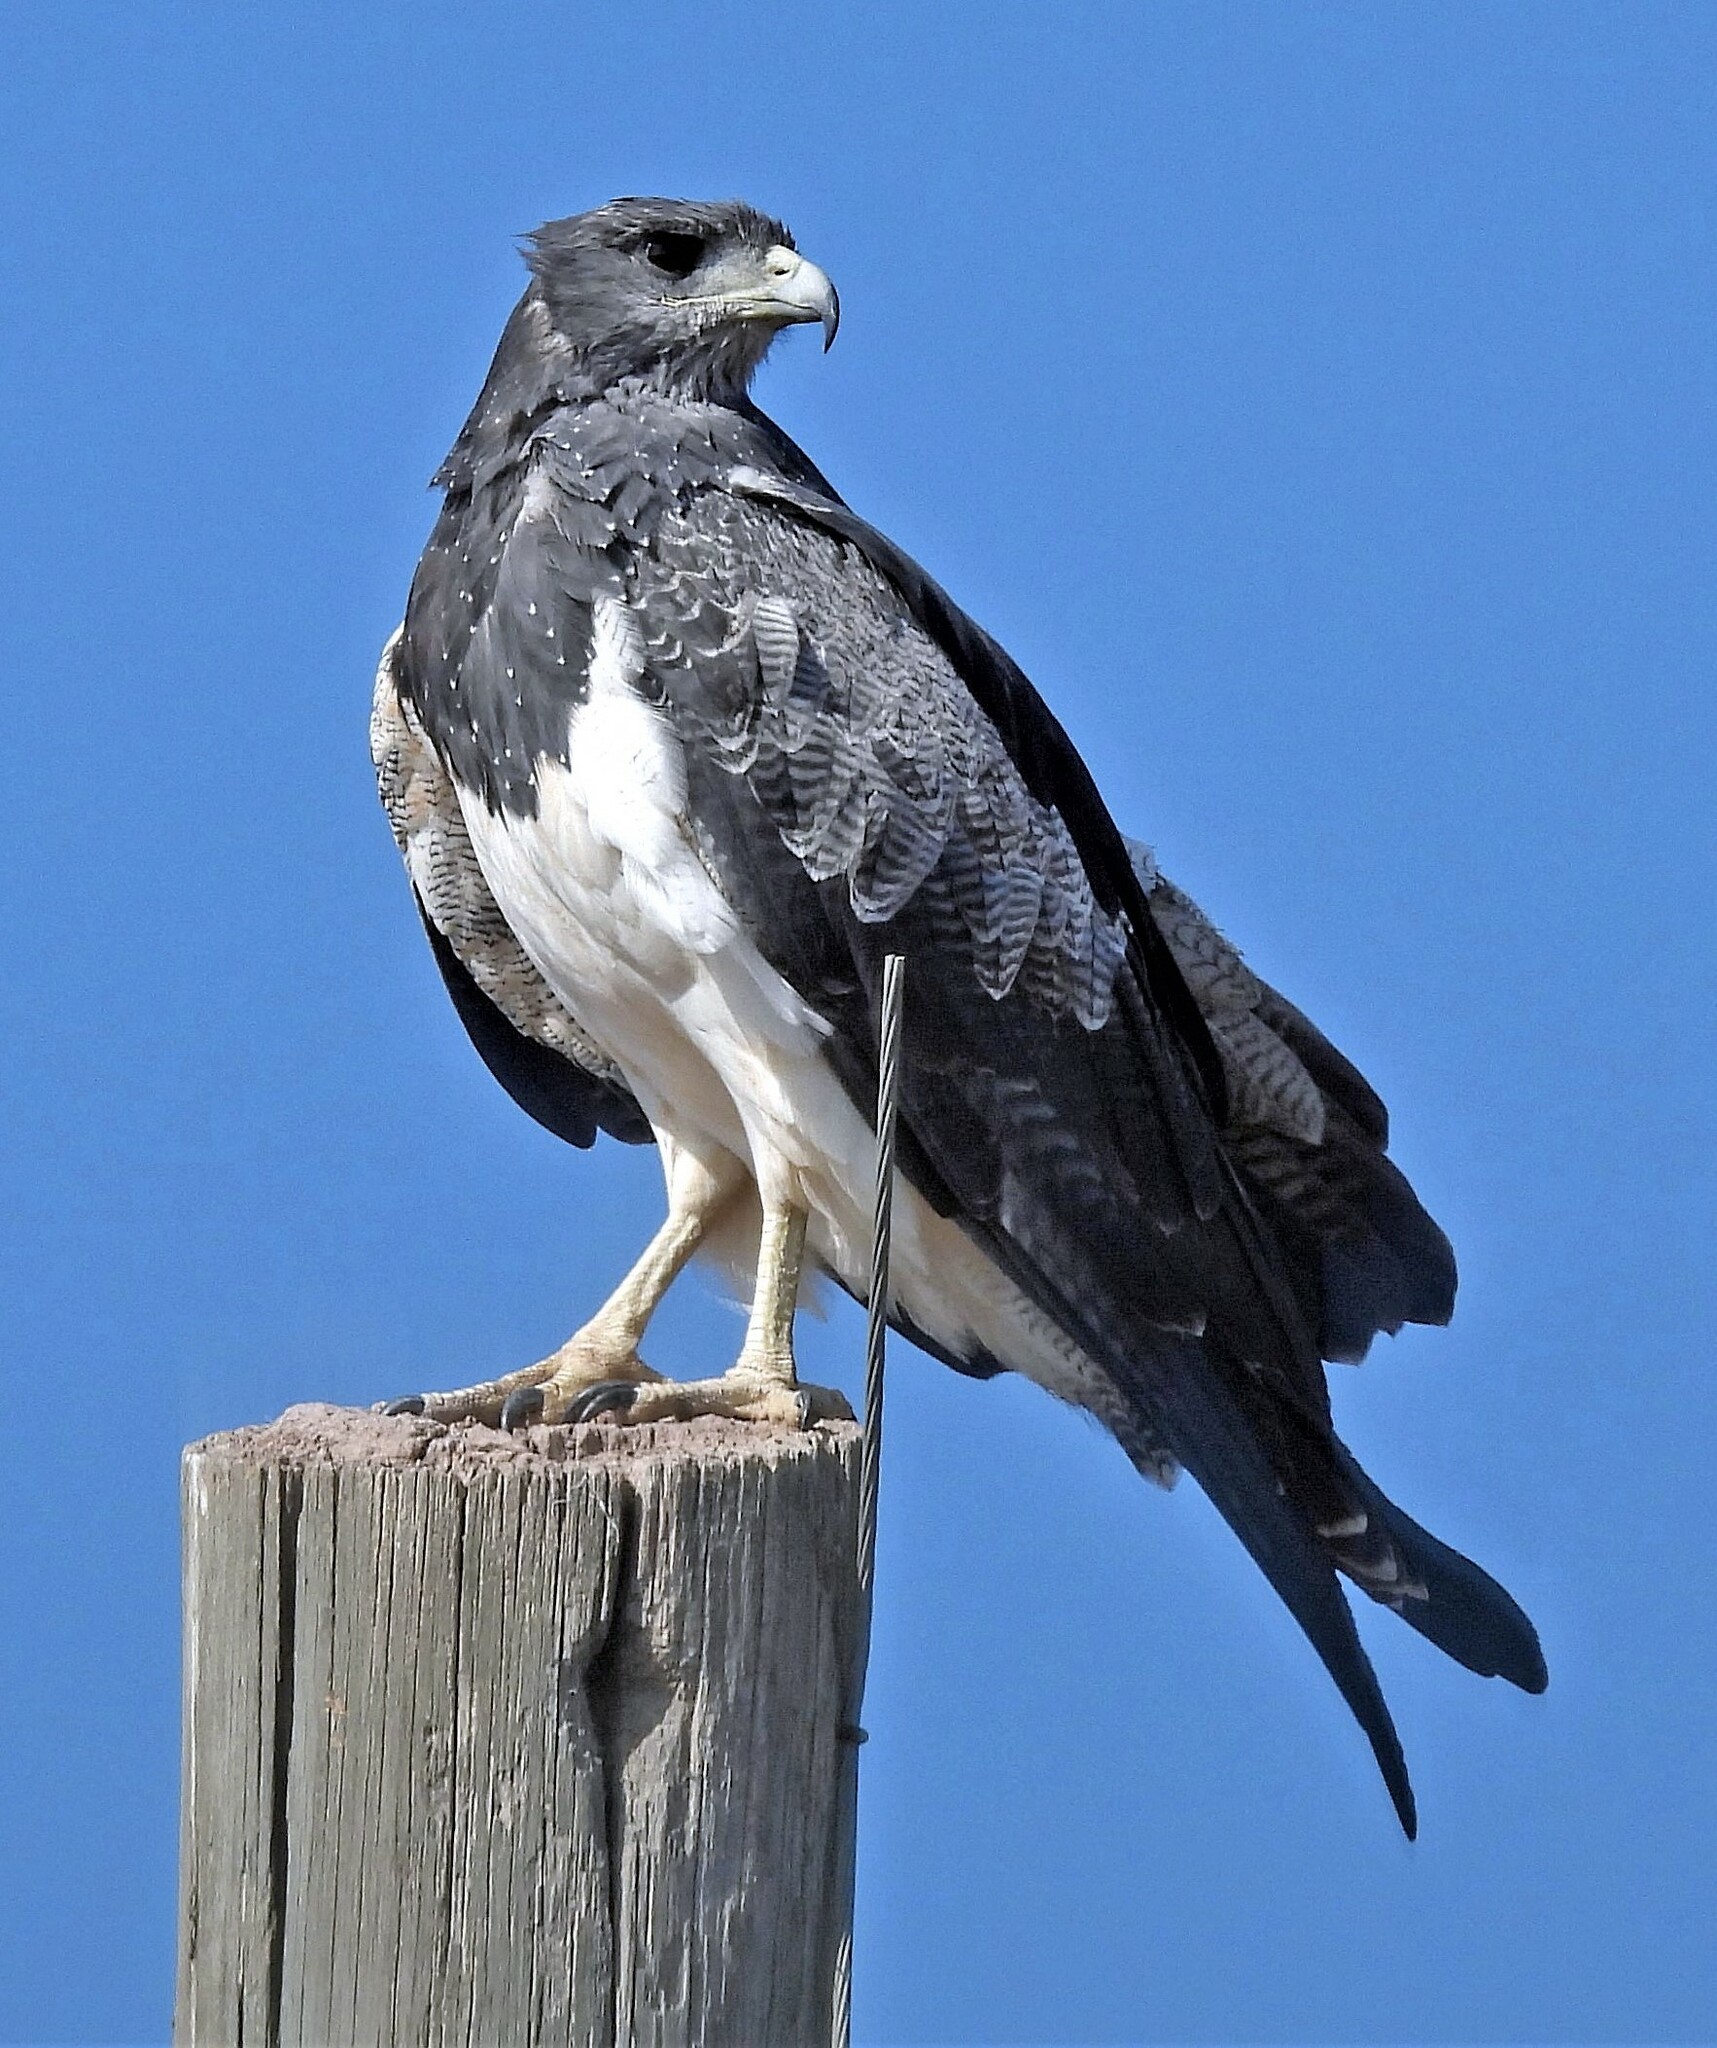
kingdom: Animalia
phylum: Chordata
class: Aves
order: Accipitriformes
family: Accipitridae
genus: Geranoaetus
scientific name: Geranoaetus melanoleucus
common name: Black-chested buzzard-eagle
